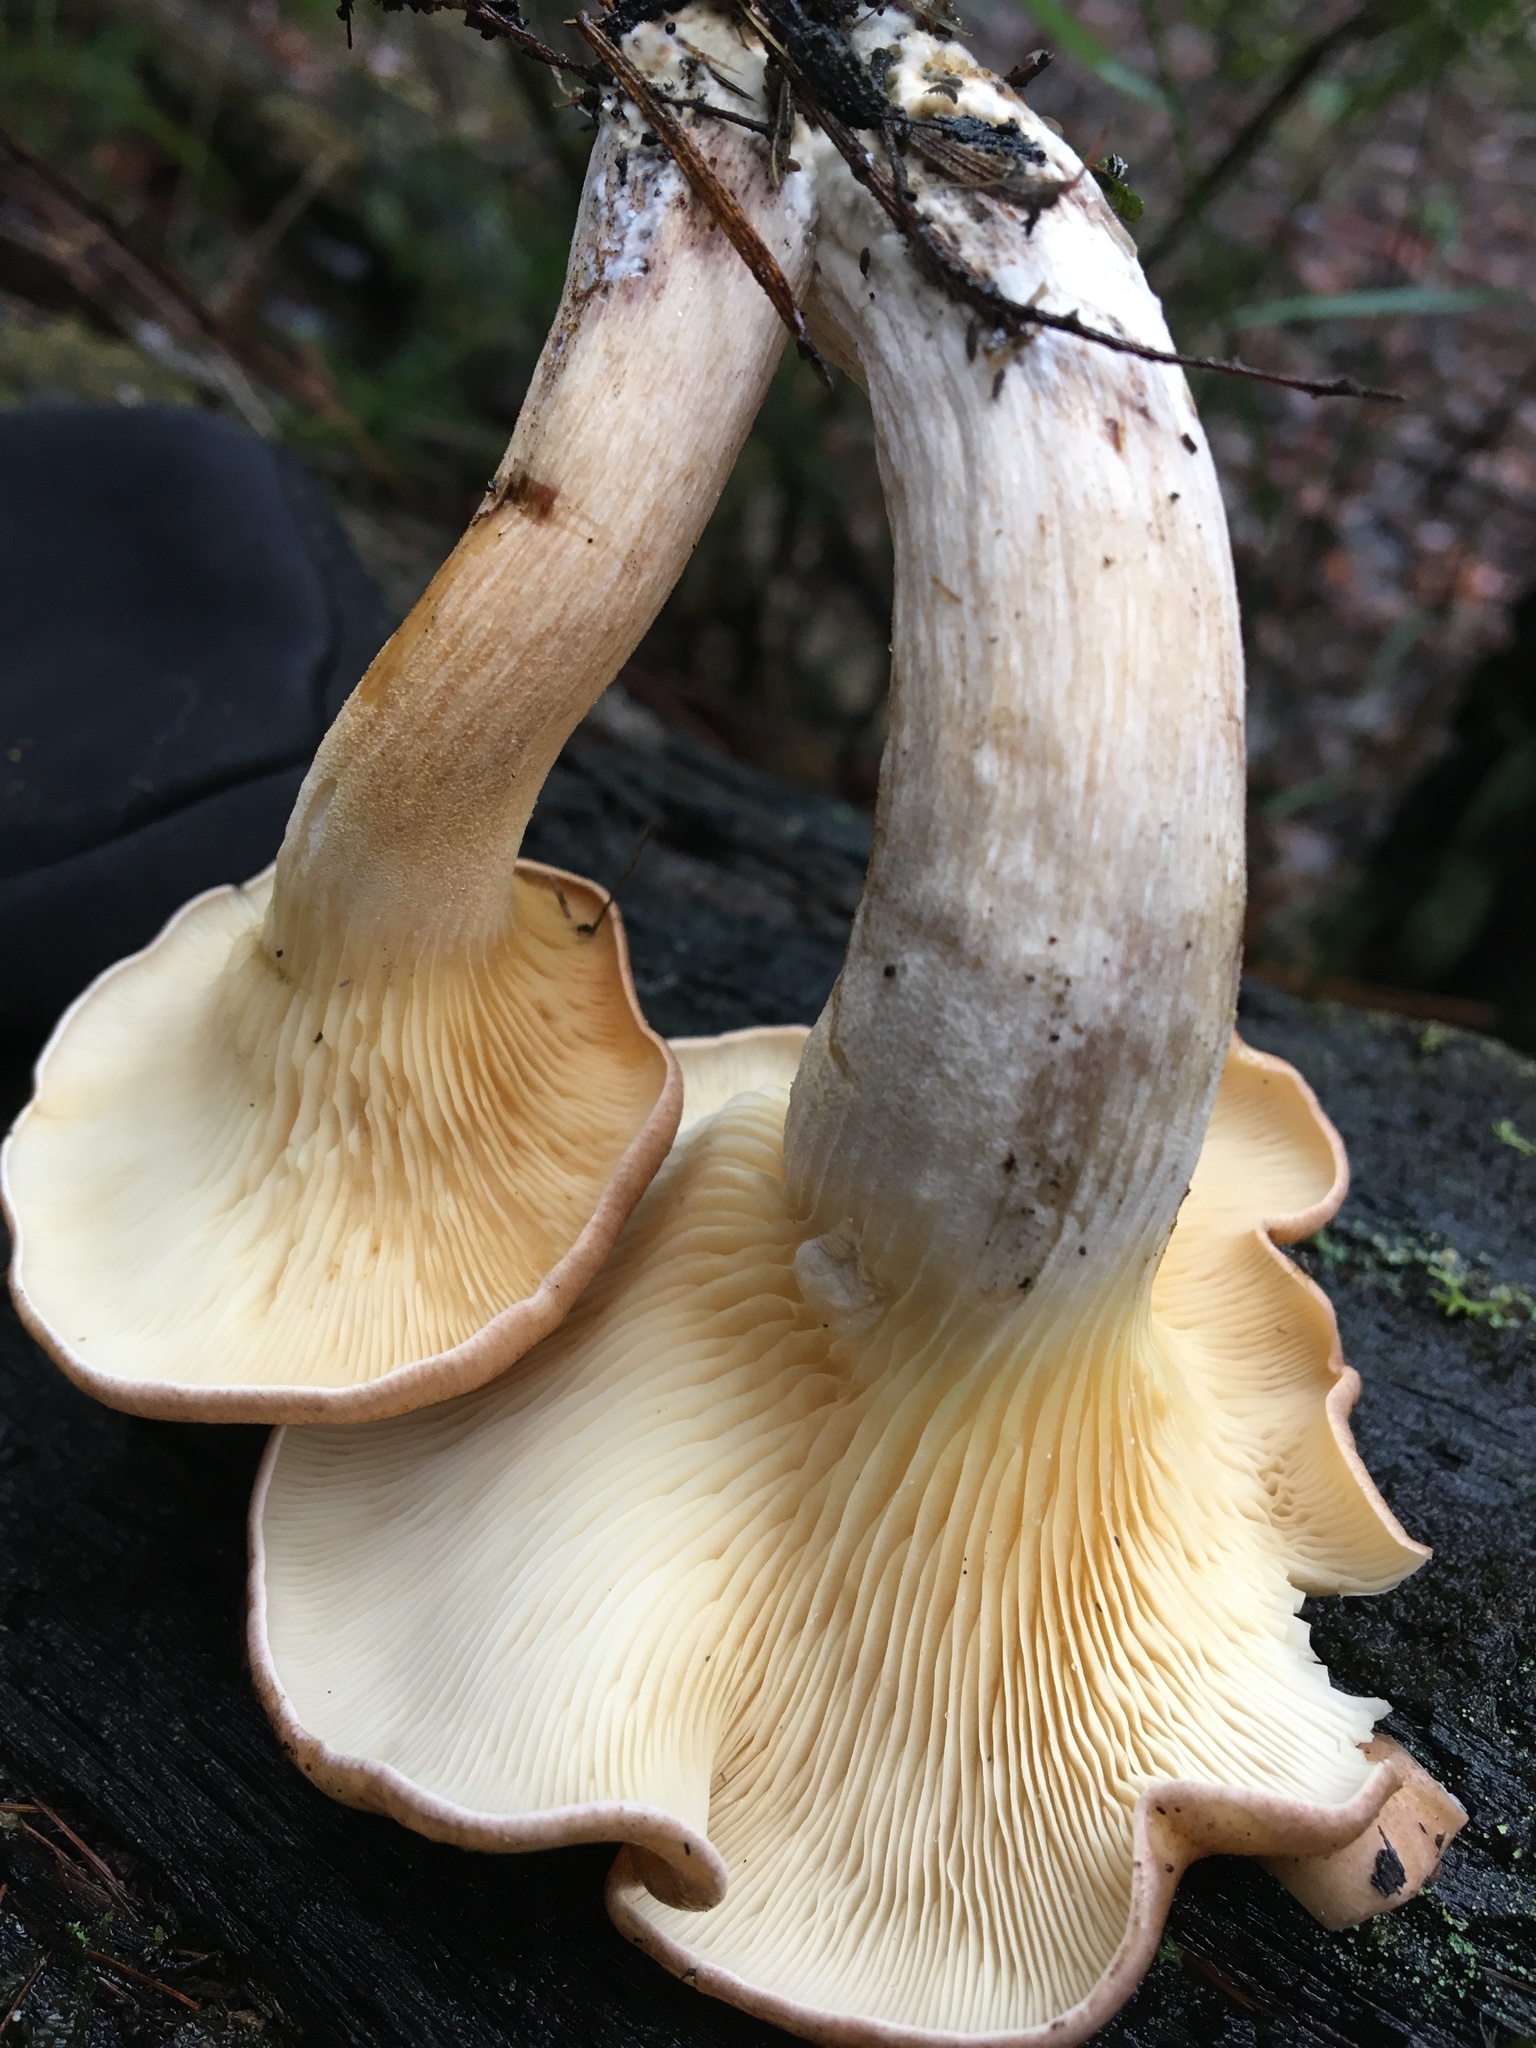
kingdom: Fungi
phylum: Basidiomycota
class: Agaricomycetes
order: Agaricales
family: Omphalotaceae
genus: Omphalotus
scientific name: Omphalotus nidiformis
